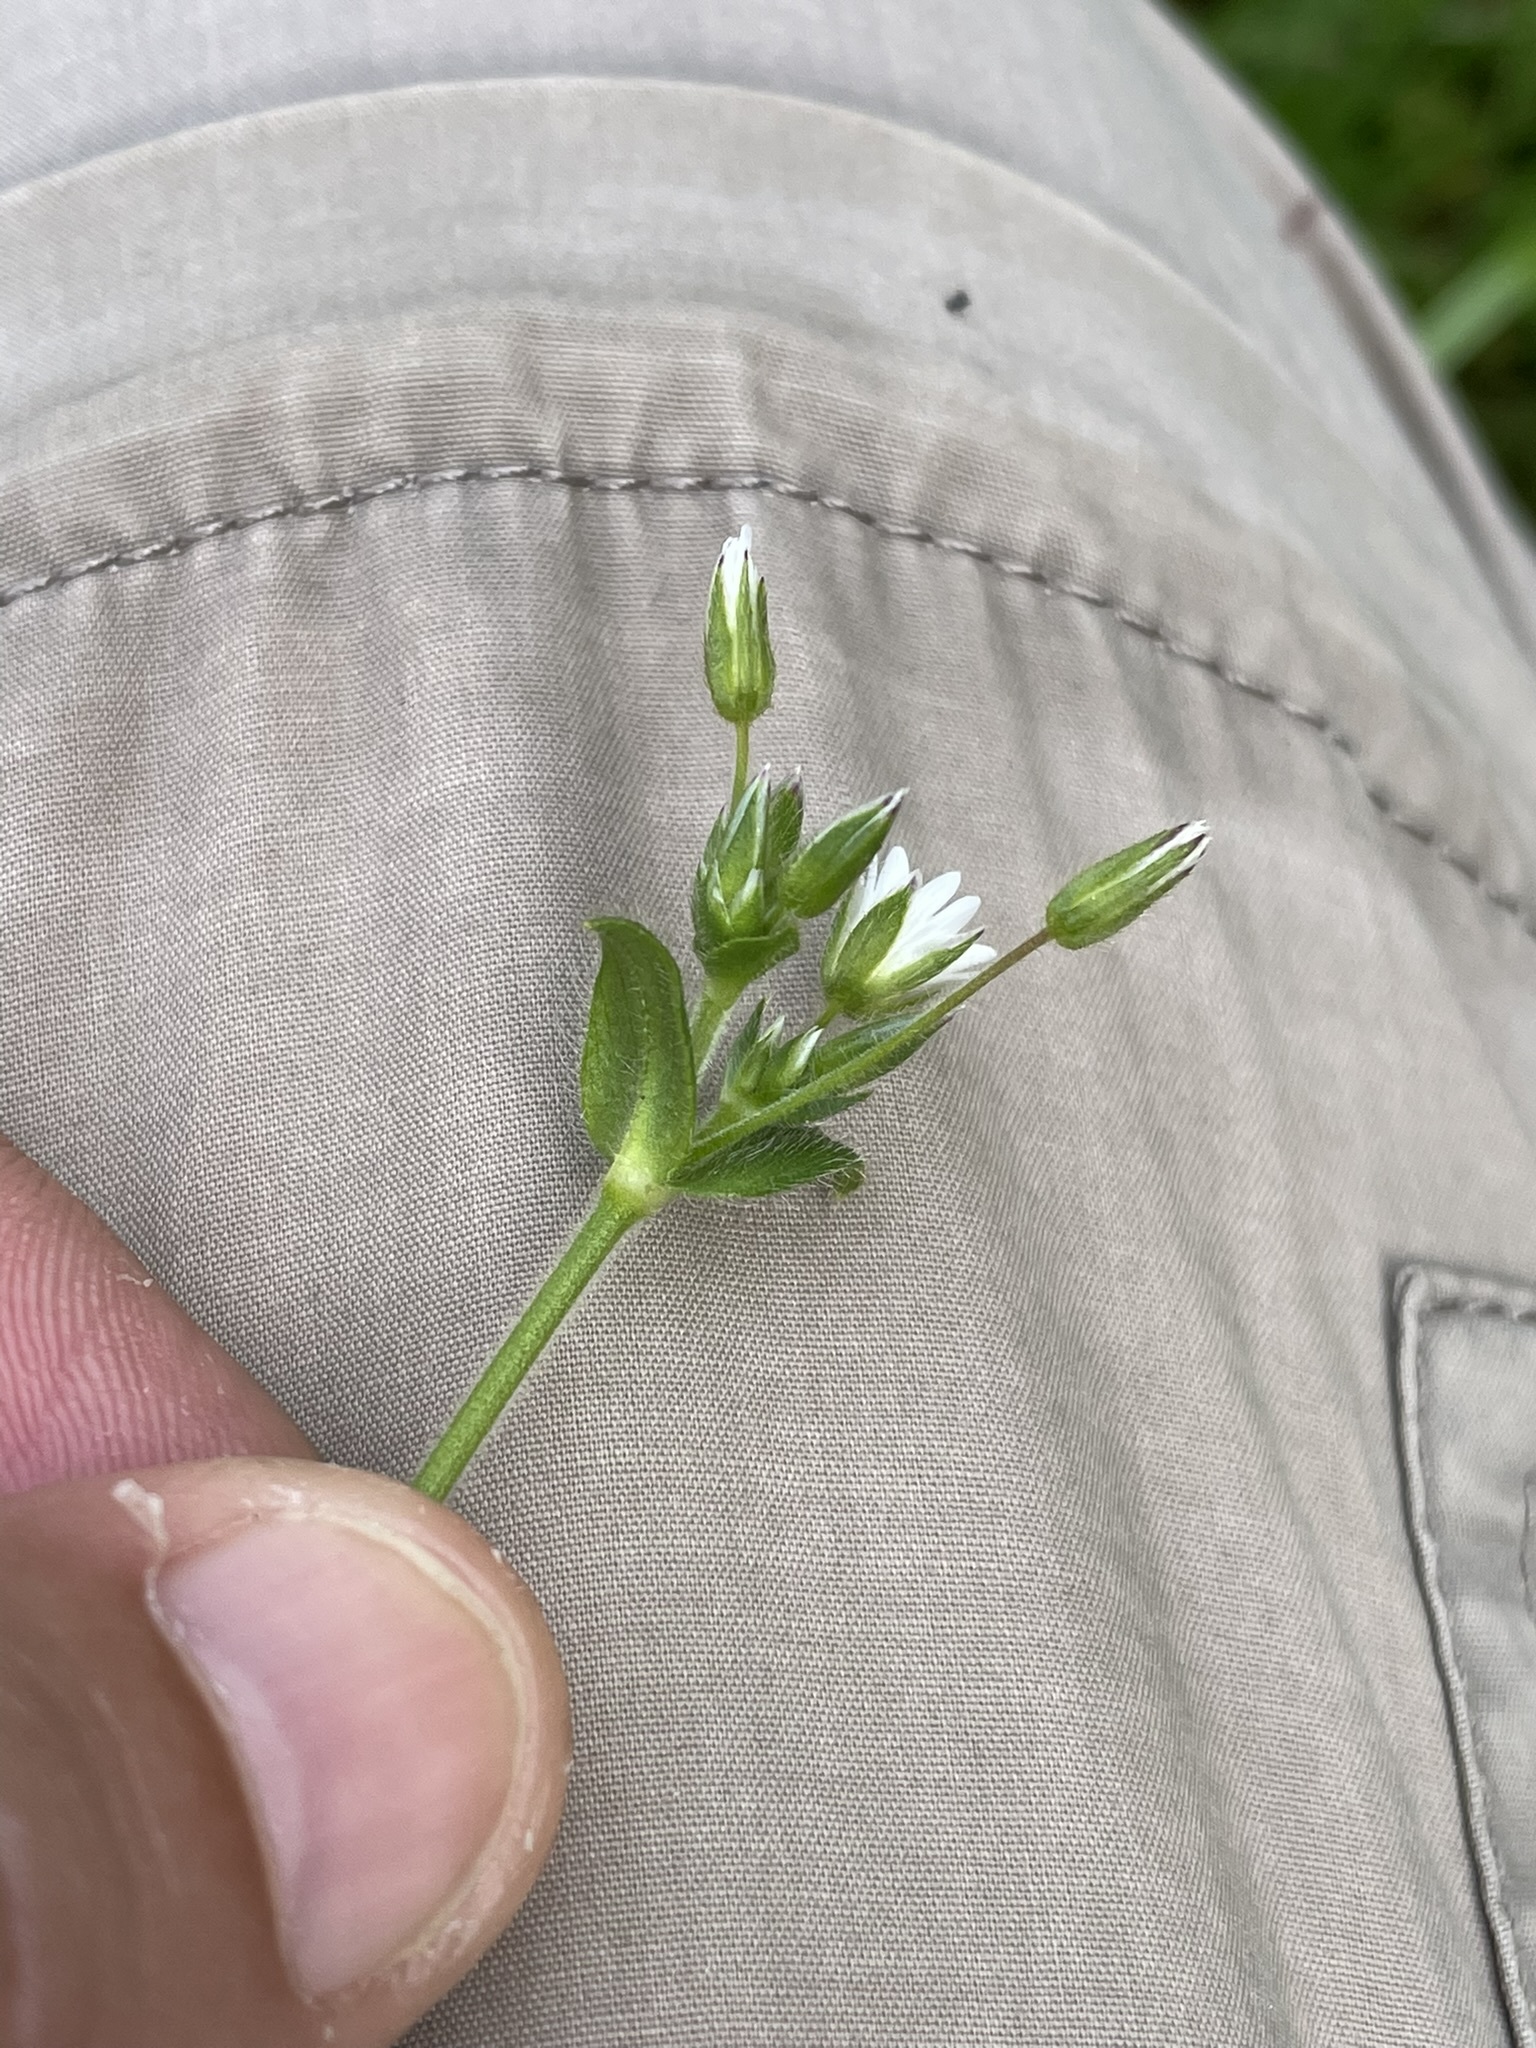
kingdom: Plantae
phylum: Tracheophyta
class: Magnoliopsida
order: Caryophyllales
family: Caryophyllaceae
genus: Cerastium
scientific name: Cerastium holosteoides
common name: Big chickweed
